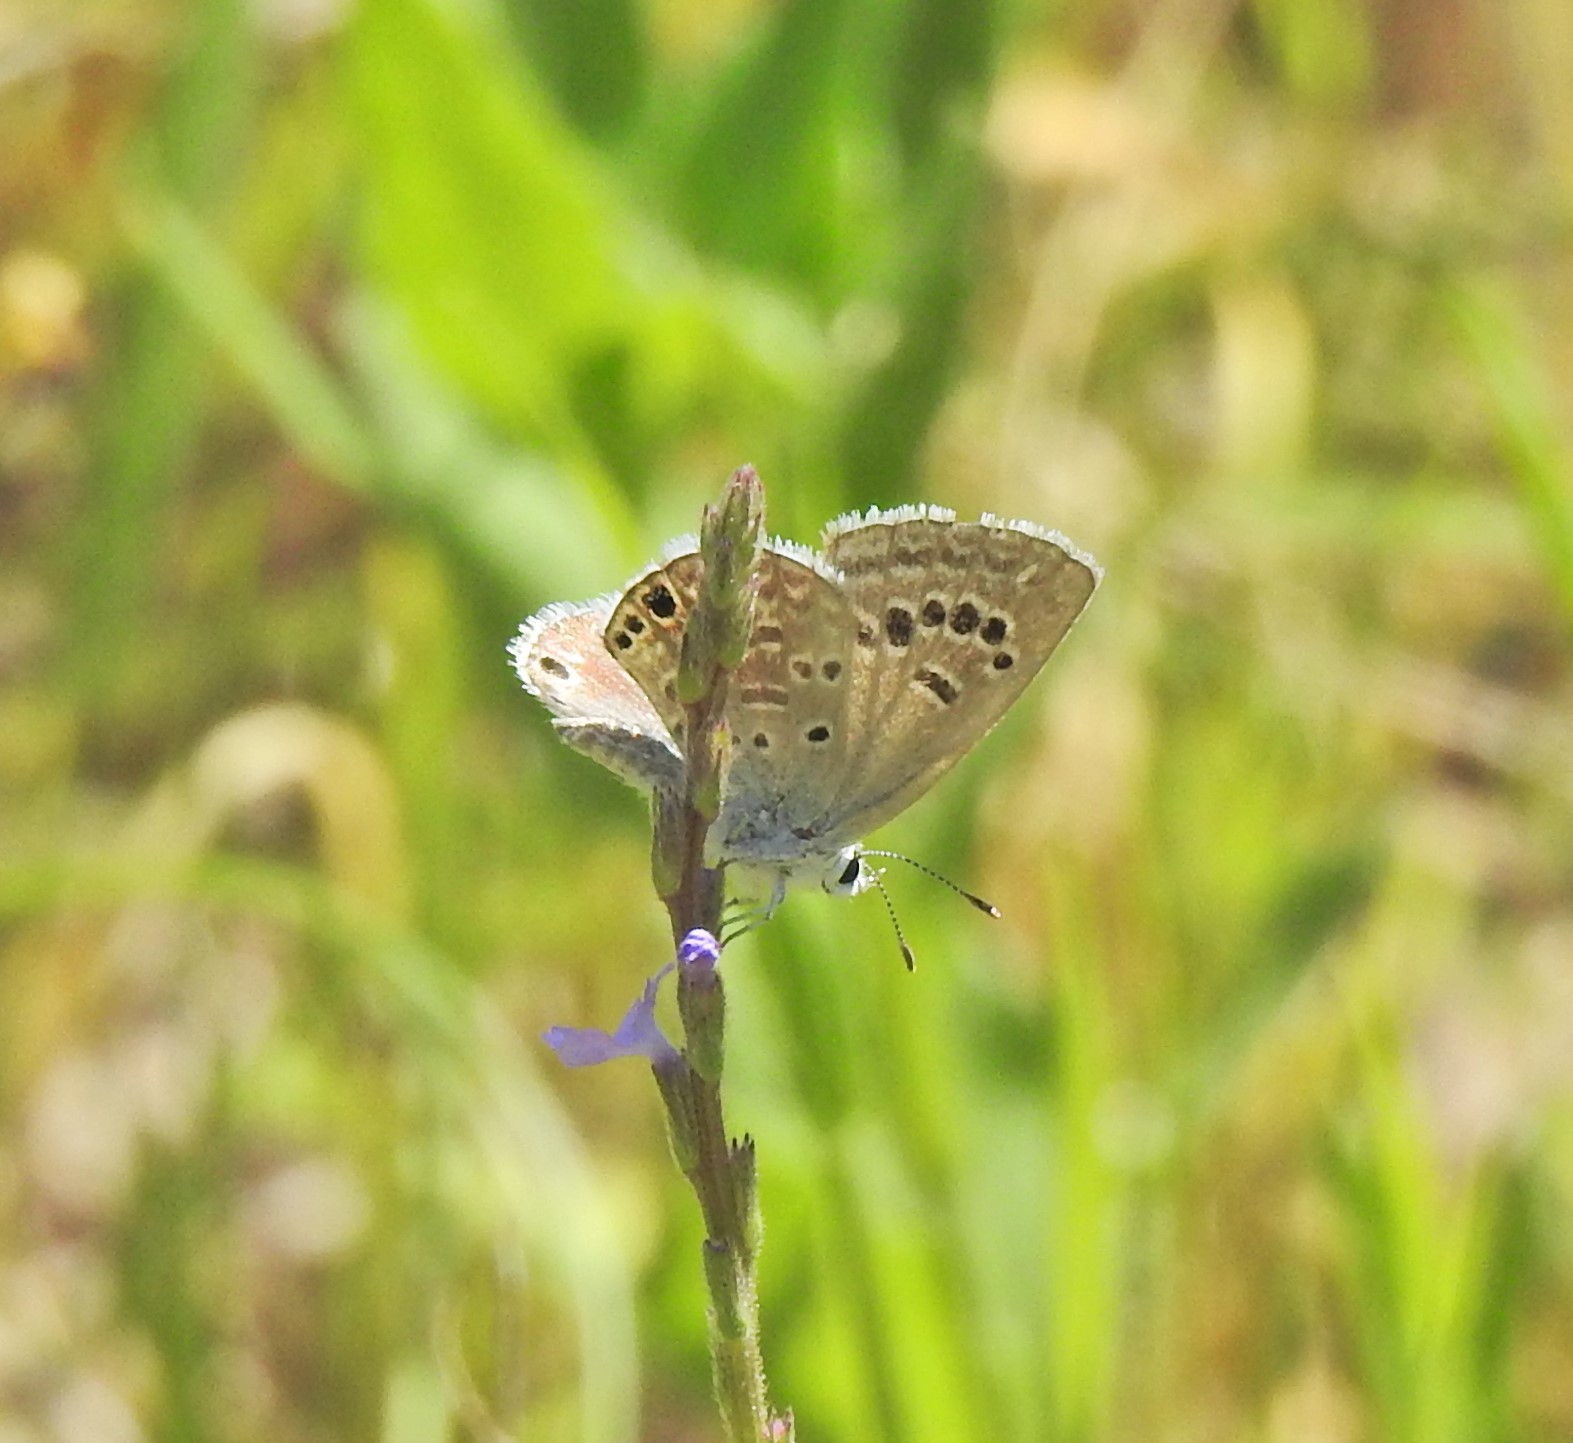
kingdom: Animalia
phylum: Arthropoda
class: Insecta
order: Lepidoptera
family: Lycaenidae
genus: Echinargus
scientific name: Echinargus isola
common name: Reakirt's blue
